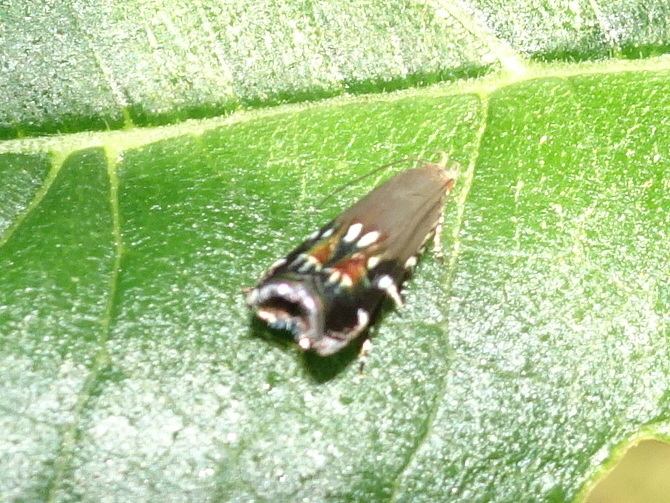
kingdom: Animalia
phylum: Arthropoda
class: Insecta
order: Lepidoptera
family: Gelechiidae
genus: Anacampsis
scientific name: Anacampsis levipedella
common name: Silver-dashed anacampsis
